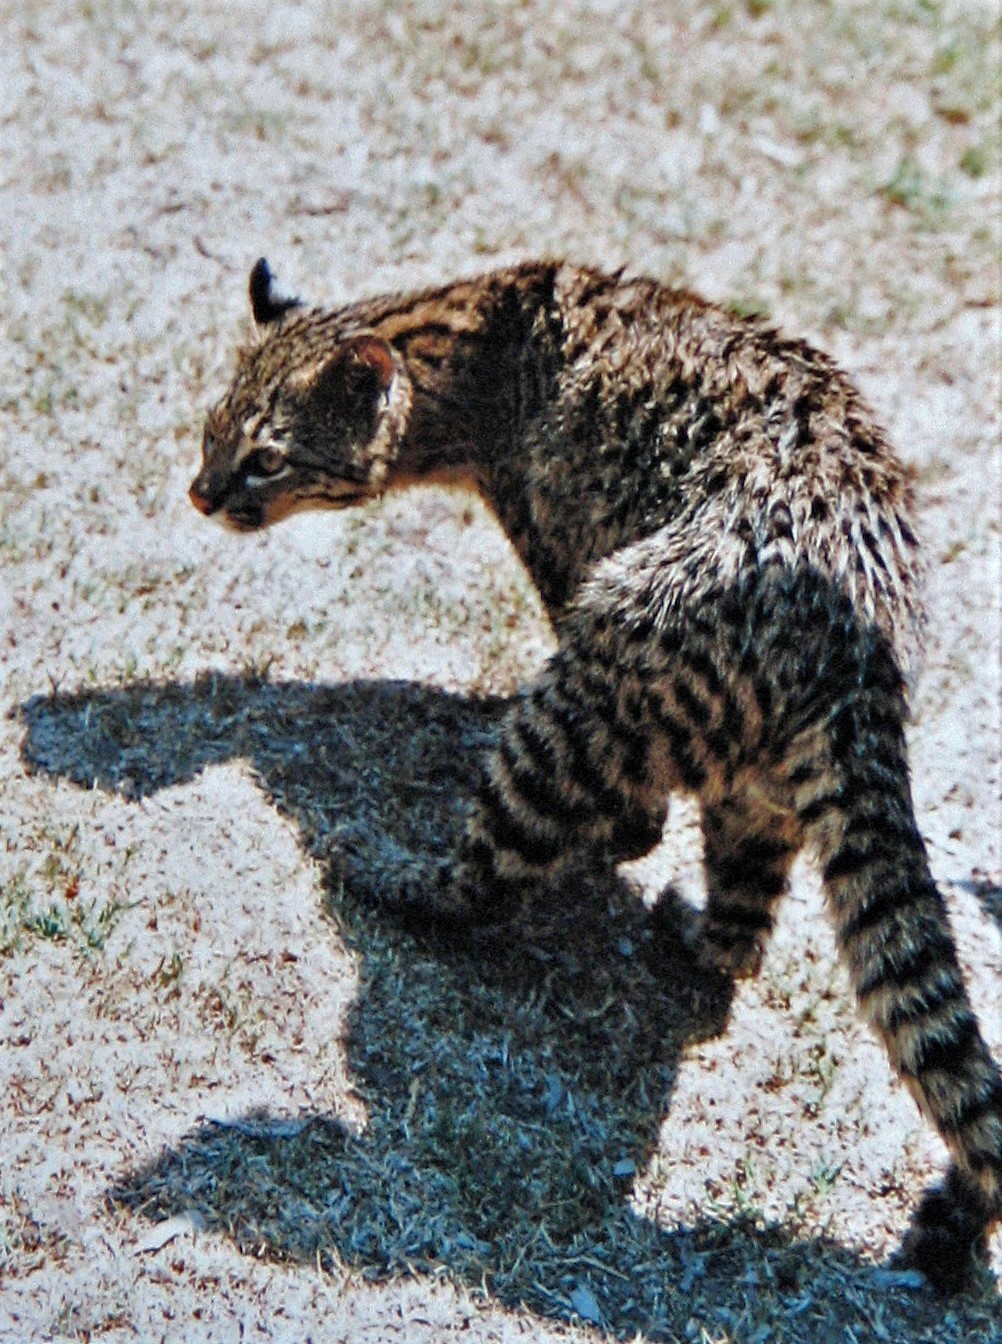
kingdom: Animalia
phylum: Chordata
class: Mammalia
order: Carnivora
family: Felidae
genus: Leopardus
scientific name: Leopardus geoffroyi
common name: Geoffroy's cat
